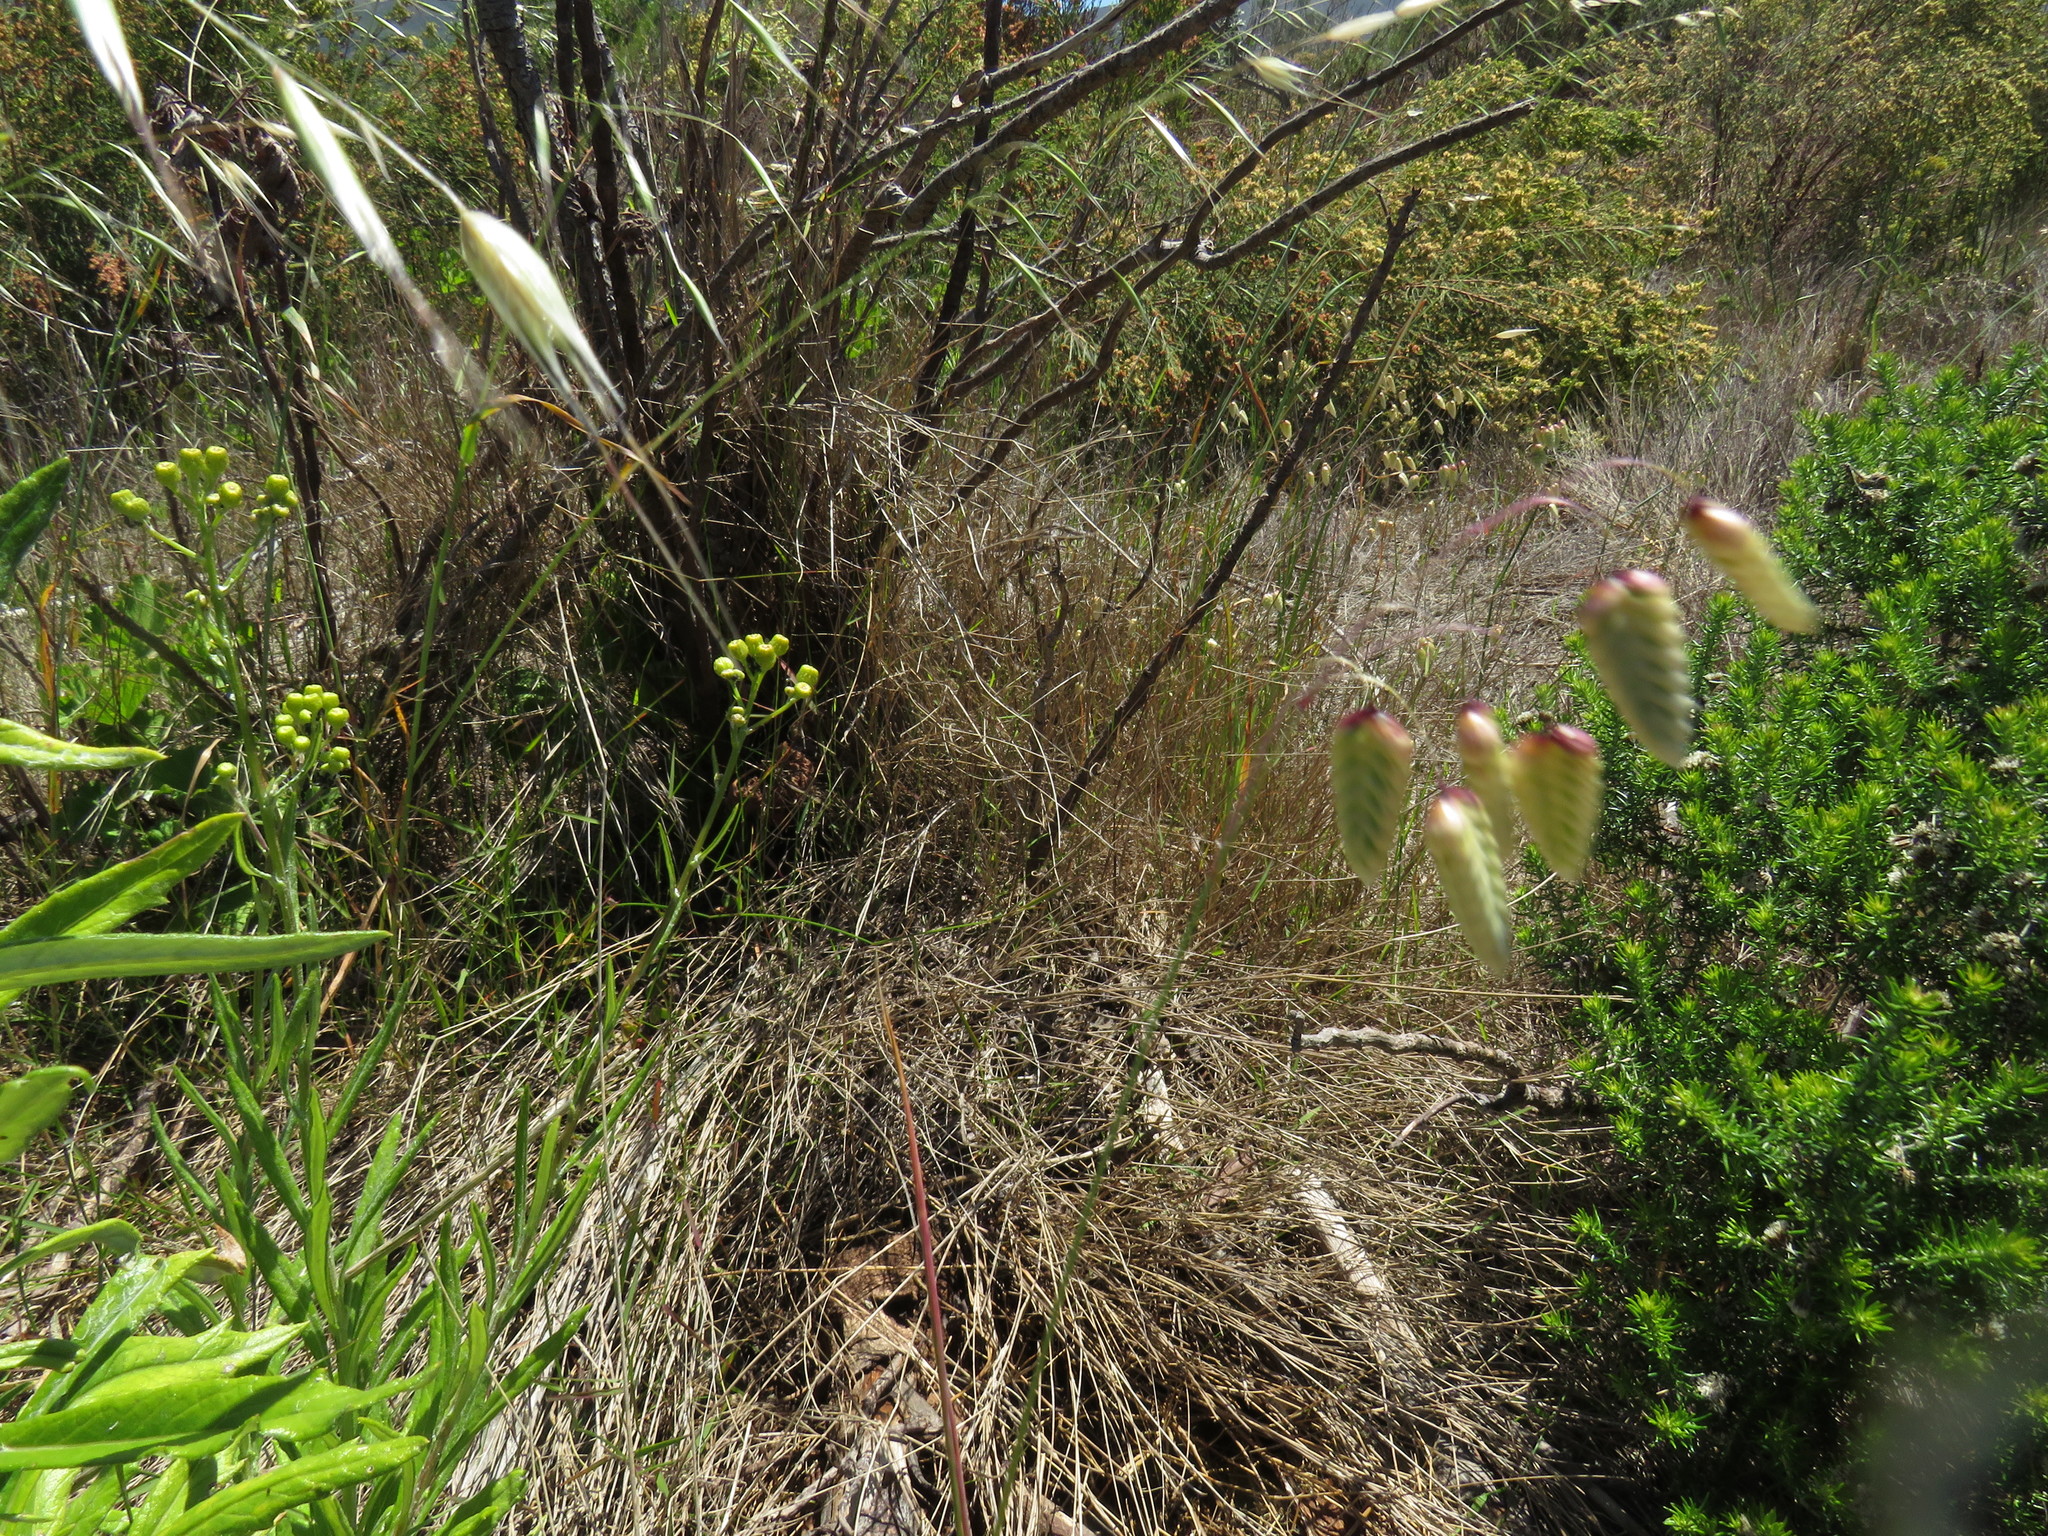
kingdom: Plantae
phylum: Tracheophyta
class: Liliopsida
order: Poales
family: Poaceae
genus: Briza
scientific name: Briza maxima
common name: Big quakinggrass
